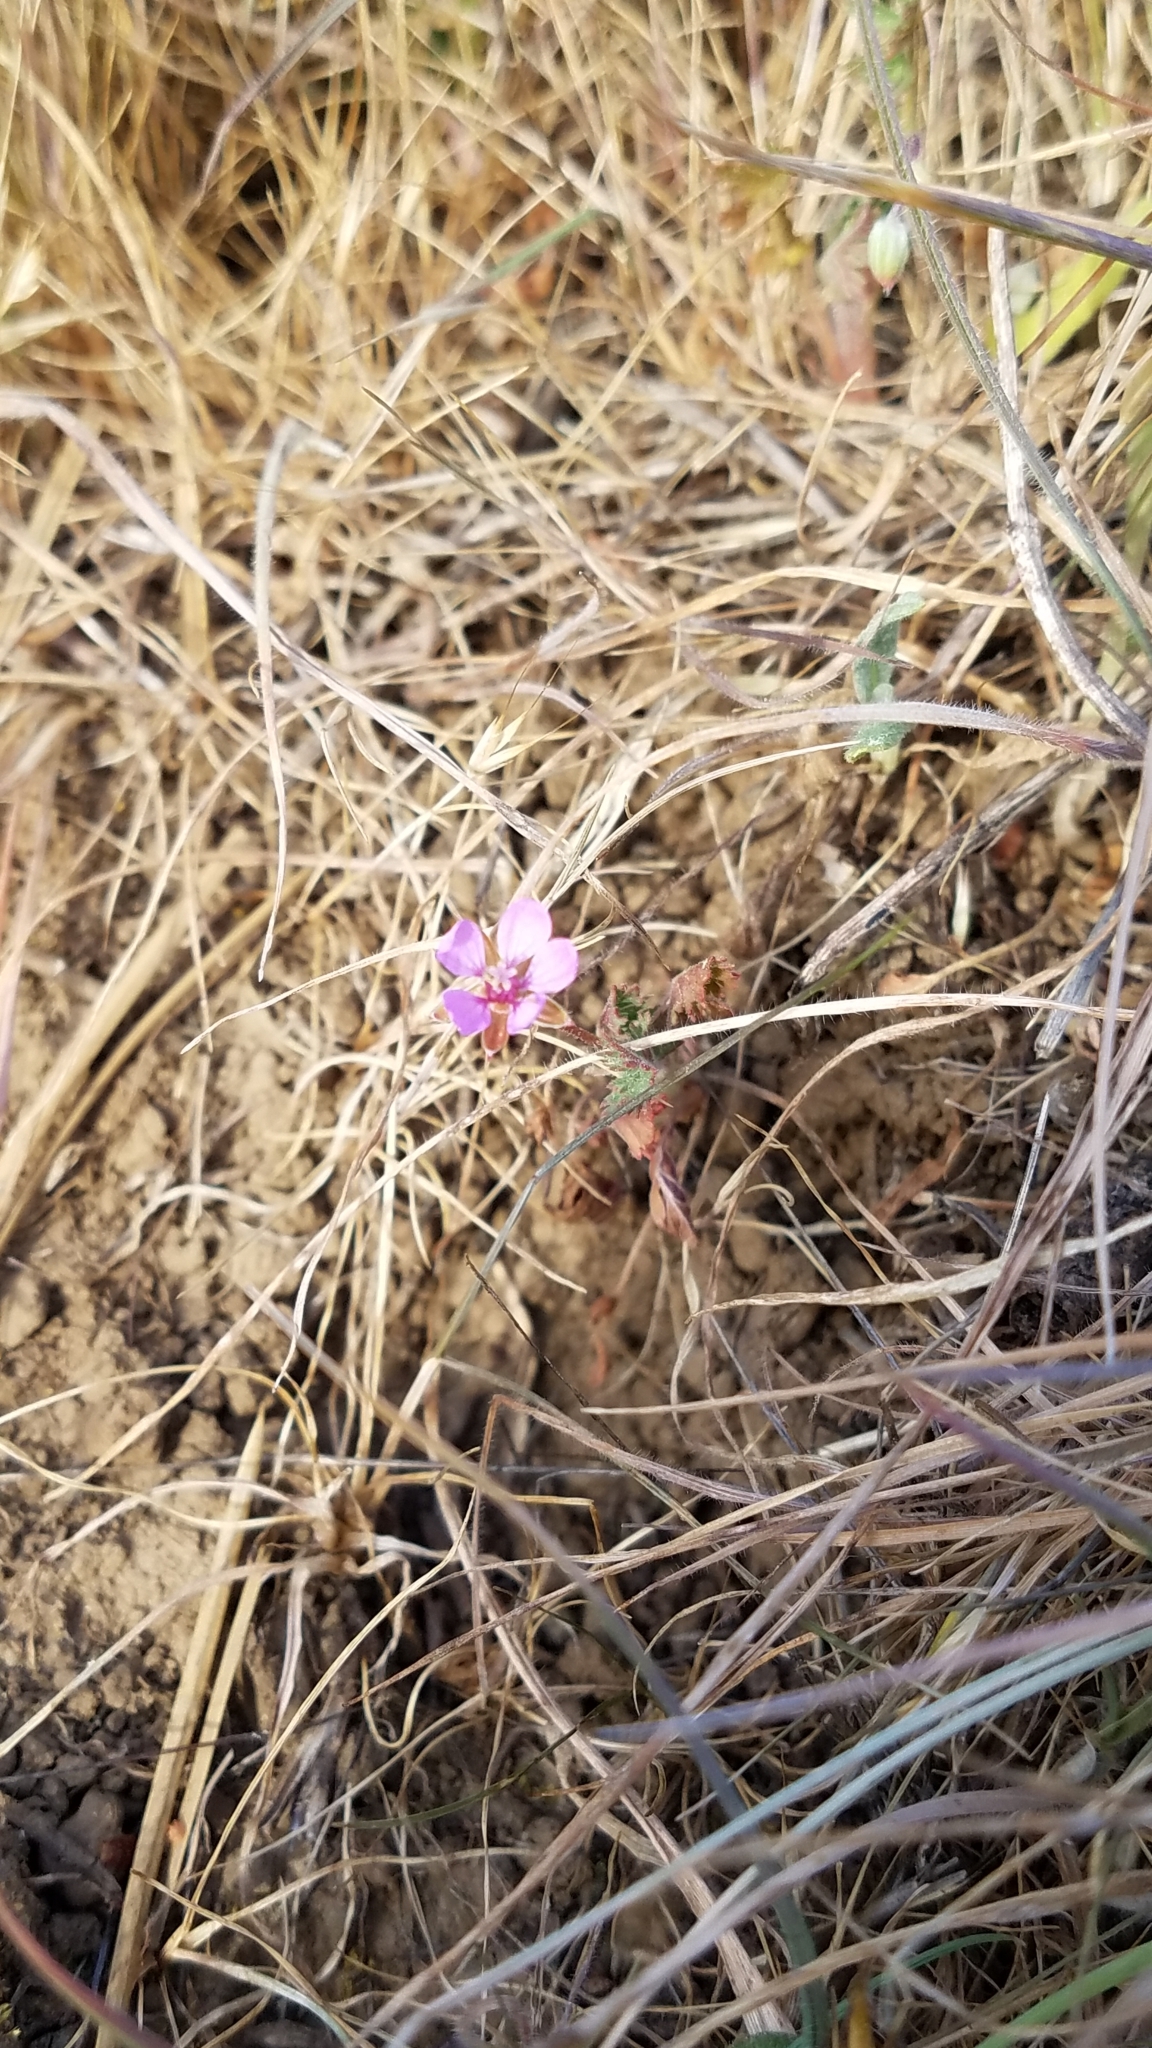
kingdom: Plantae
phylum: Tracheophyta
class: Magnoliopsida
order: Geraniales
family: Geraniaceae
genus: Erodium
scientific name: Erodium cicutarium
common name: Common stork's-bill
